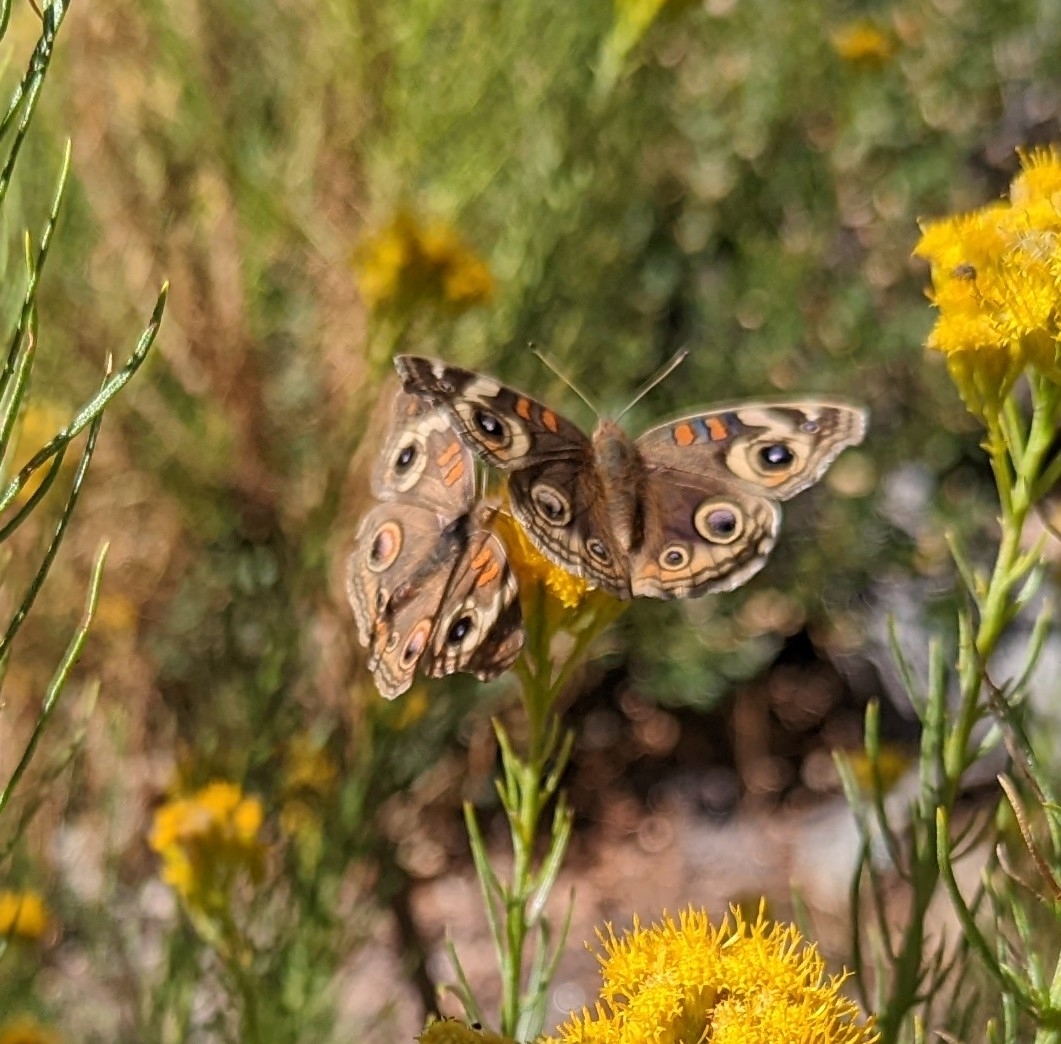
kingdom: Animalia
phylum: Arthropoda
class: Insecta
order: Lepidoptera
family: Nymphalidae
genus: Junonia
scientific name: Junonia grisea
